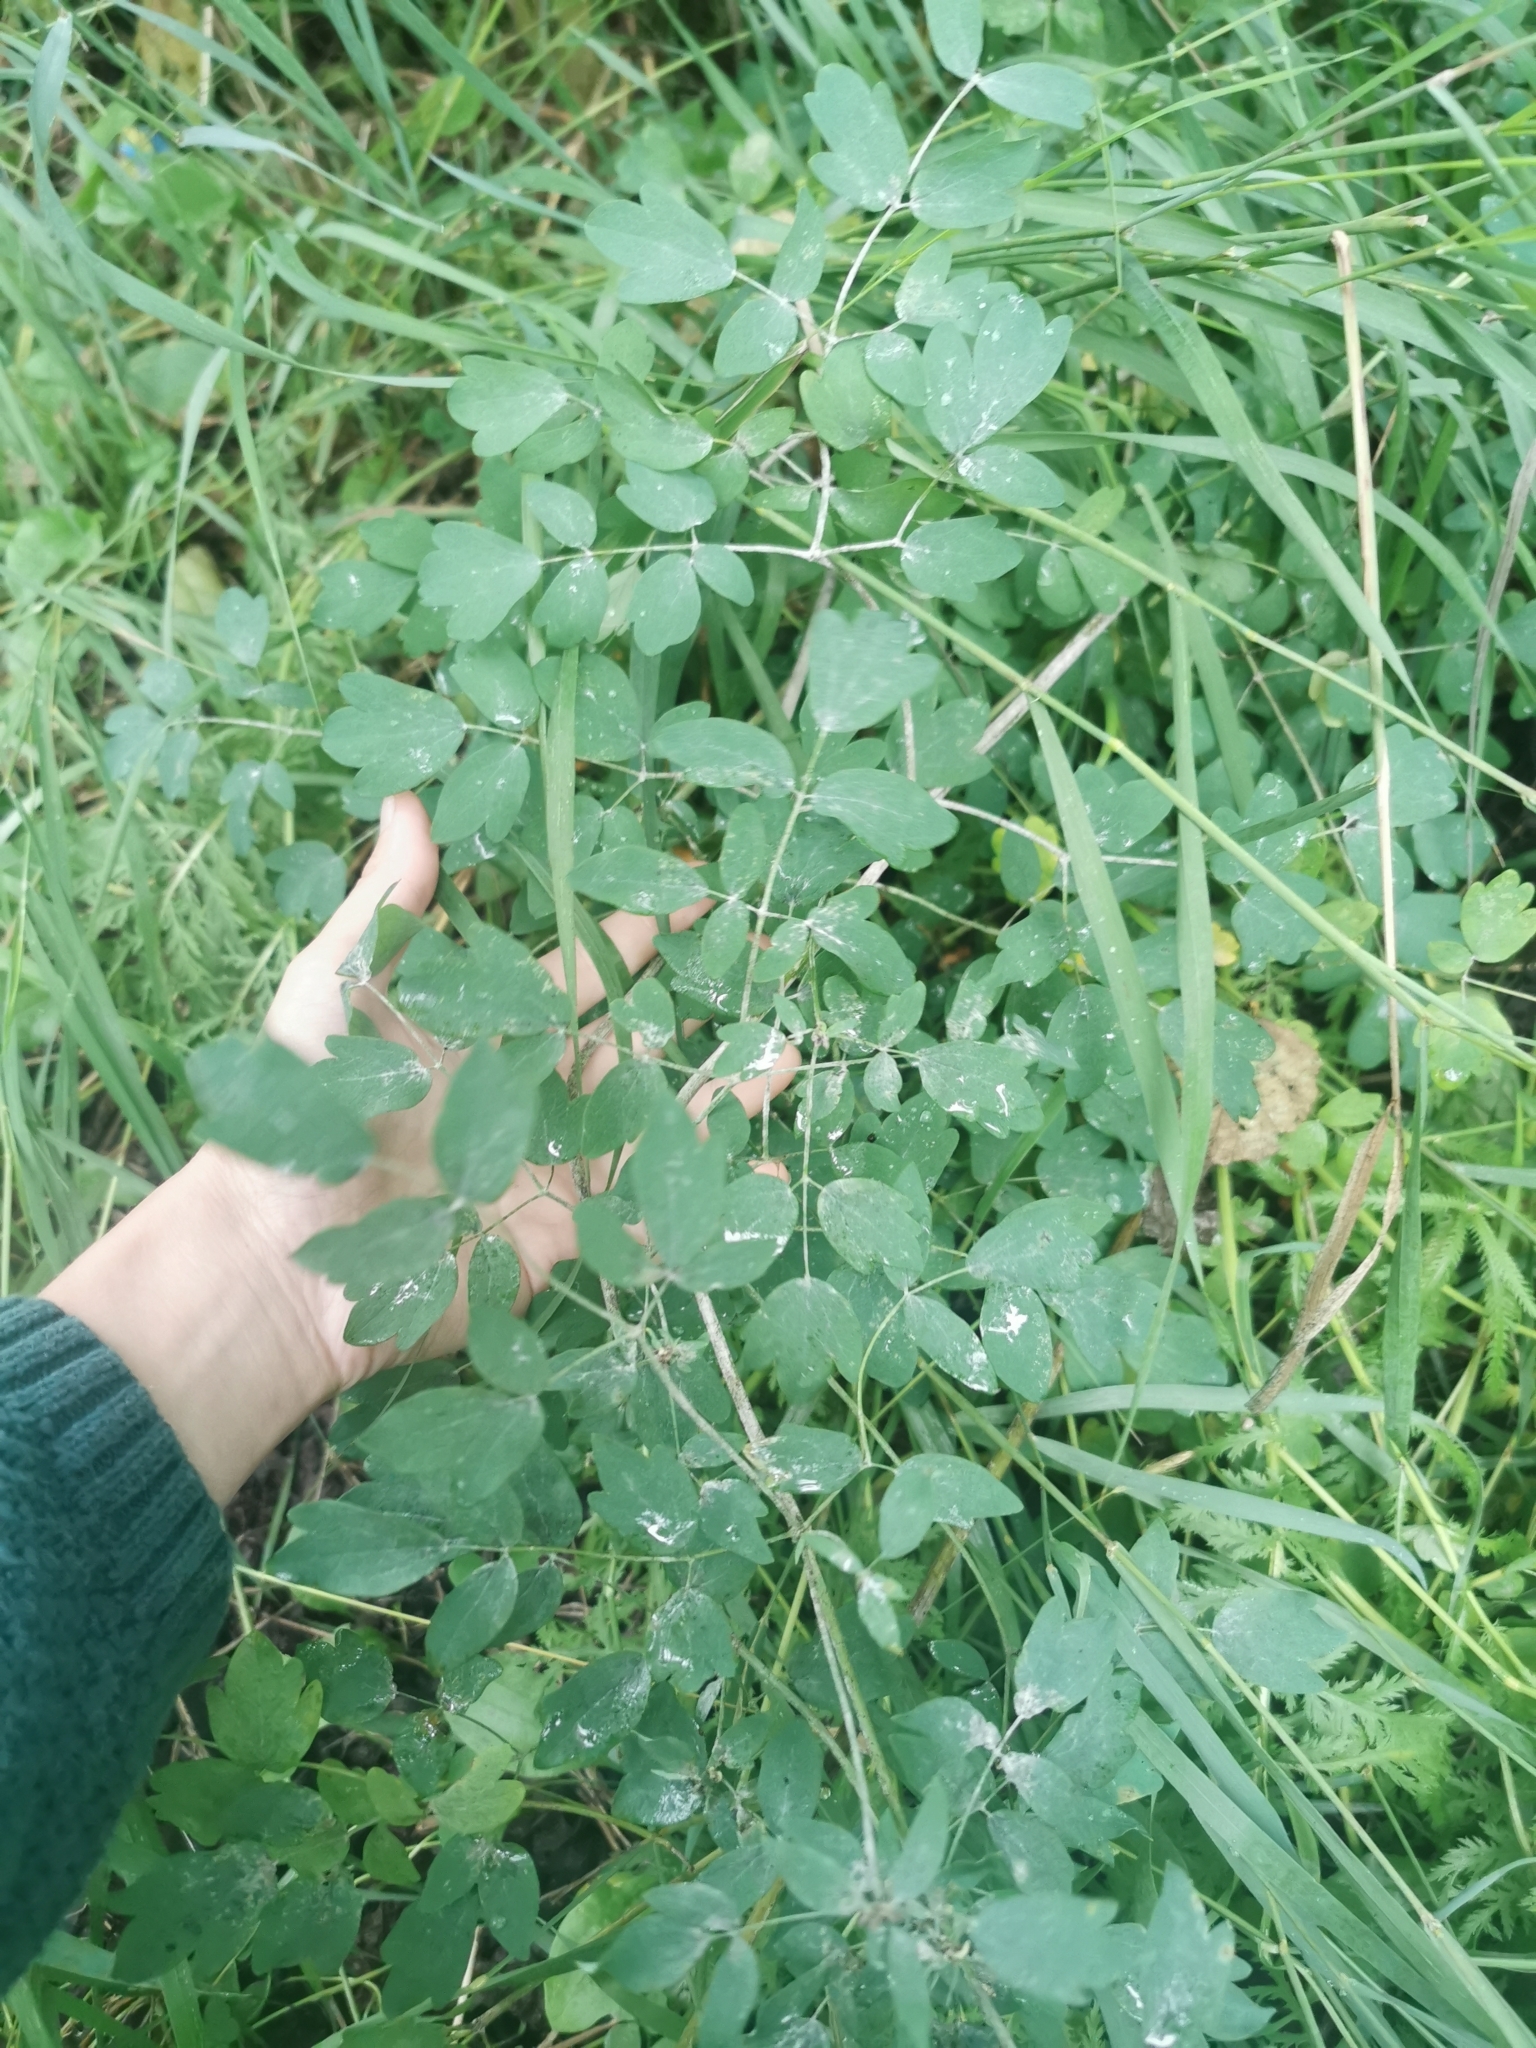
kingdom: Plantae
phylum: Tracheophyta
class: Magnoliopsida
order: Ranunculales
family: Ranunculaceae
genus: Thalictrum
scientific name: Thalictrum minus
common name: Lesser meadow-rue
